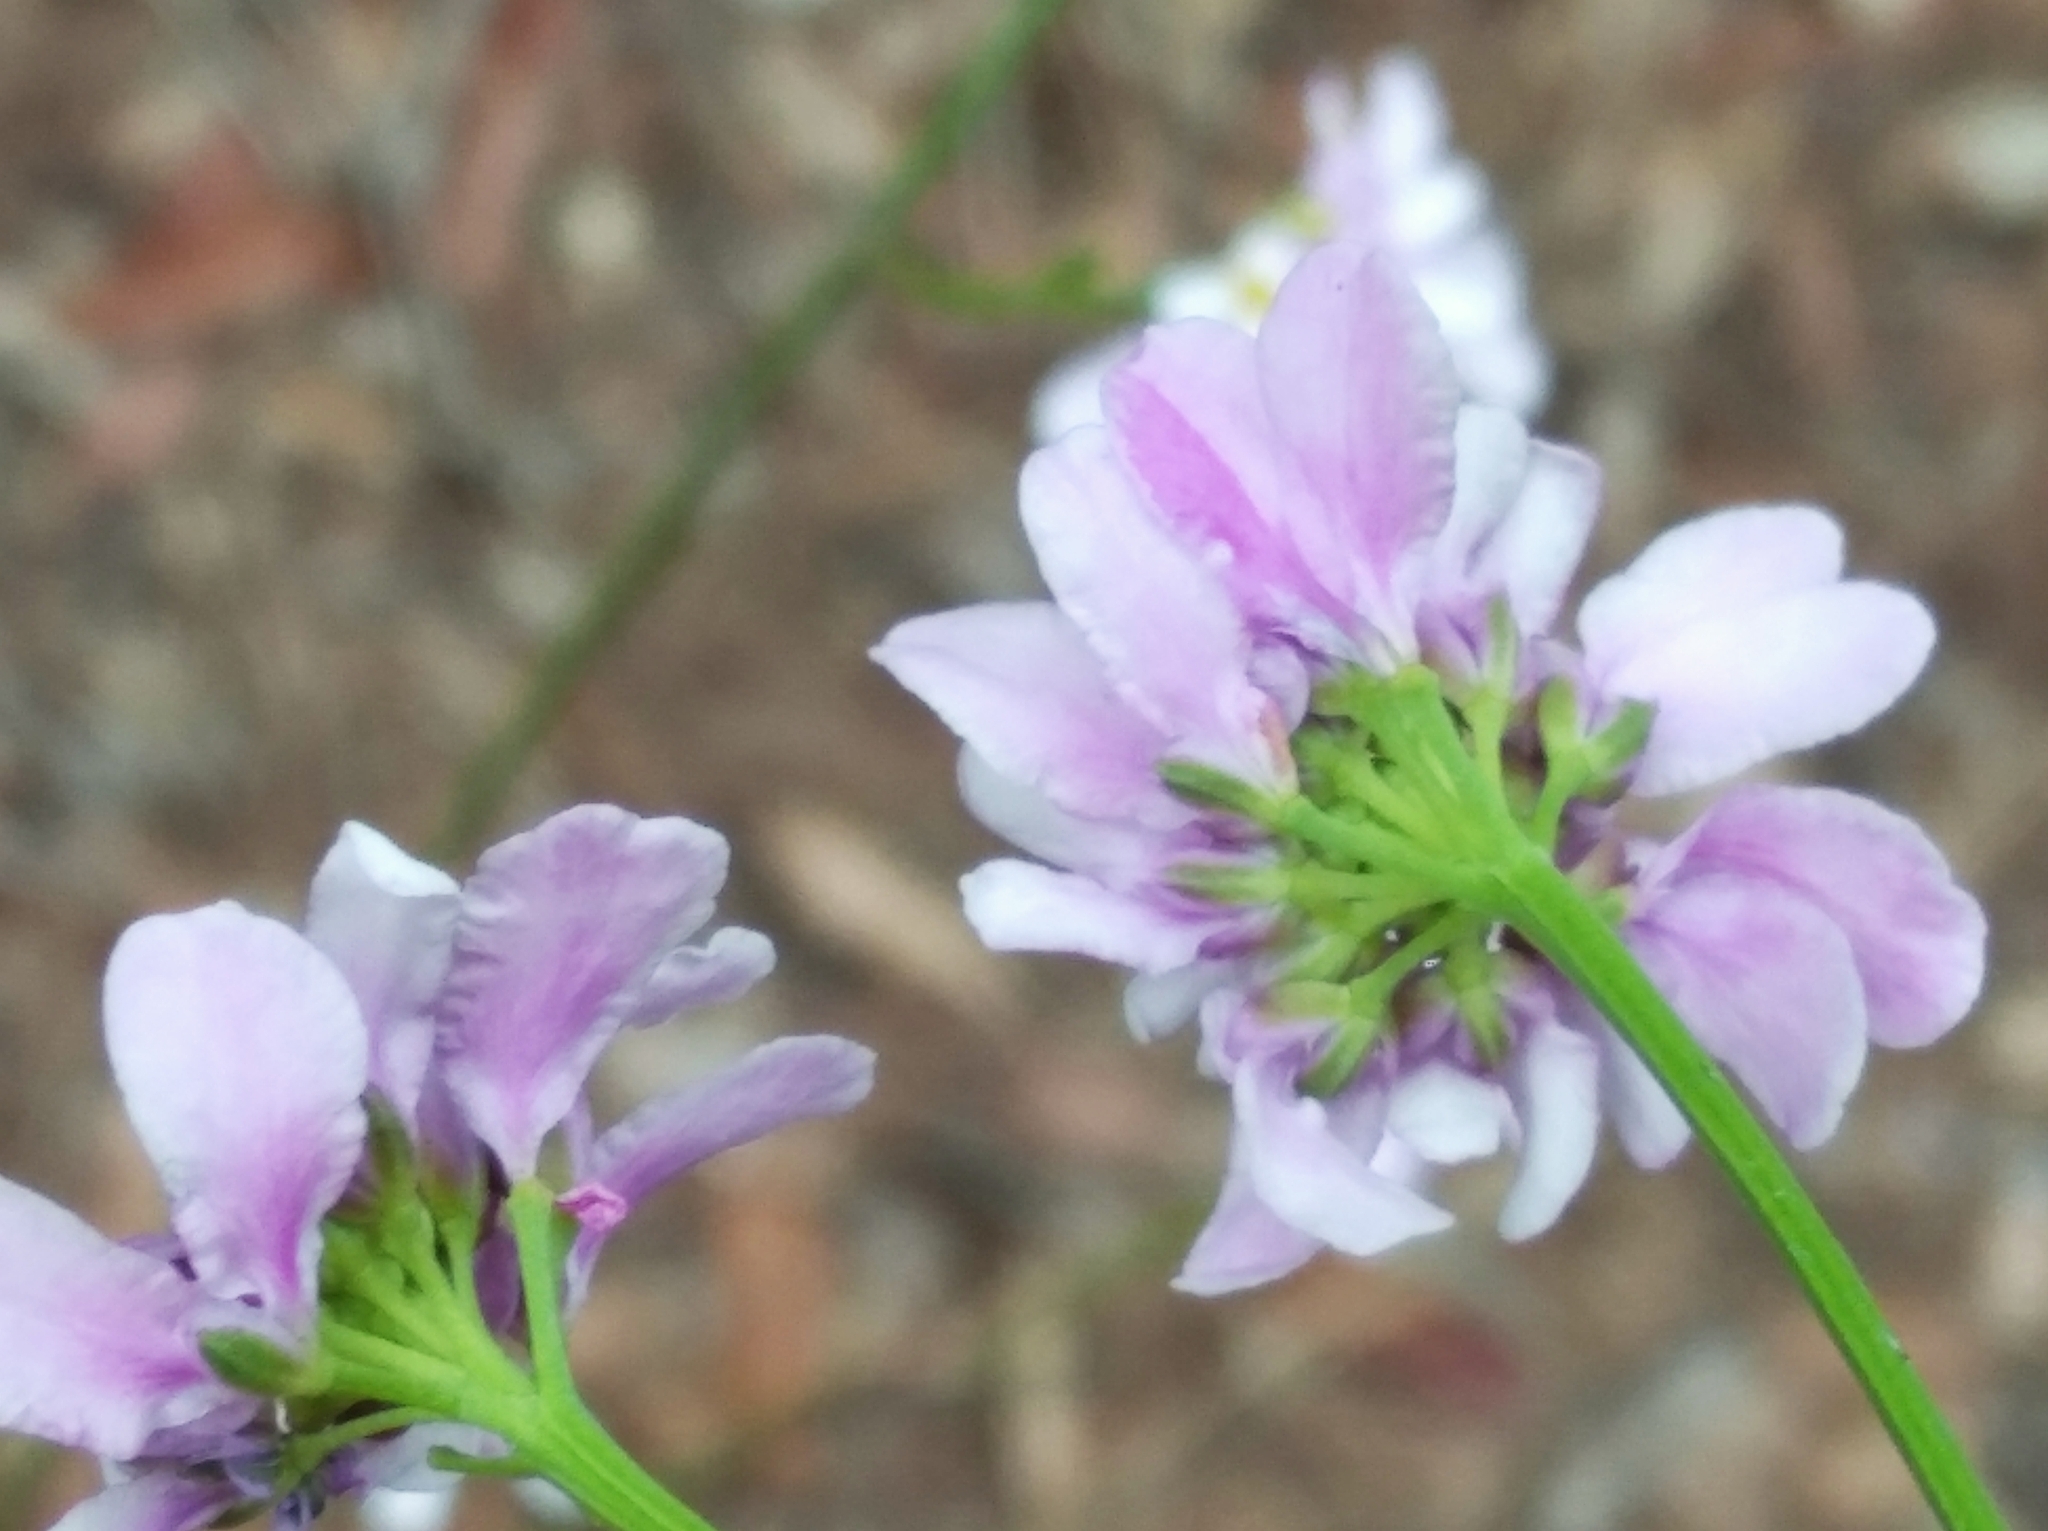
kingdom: Plantae
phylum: Tracheophyta
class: Magnoliopsida
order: Brassicales
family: Brassicaceae
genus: Iberis
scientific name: Iberis linifolia
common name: Candytuft
